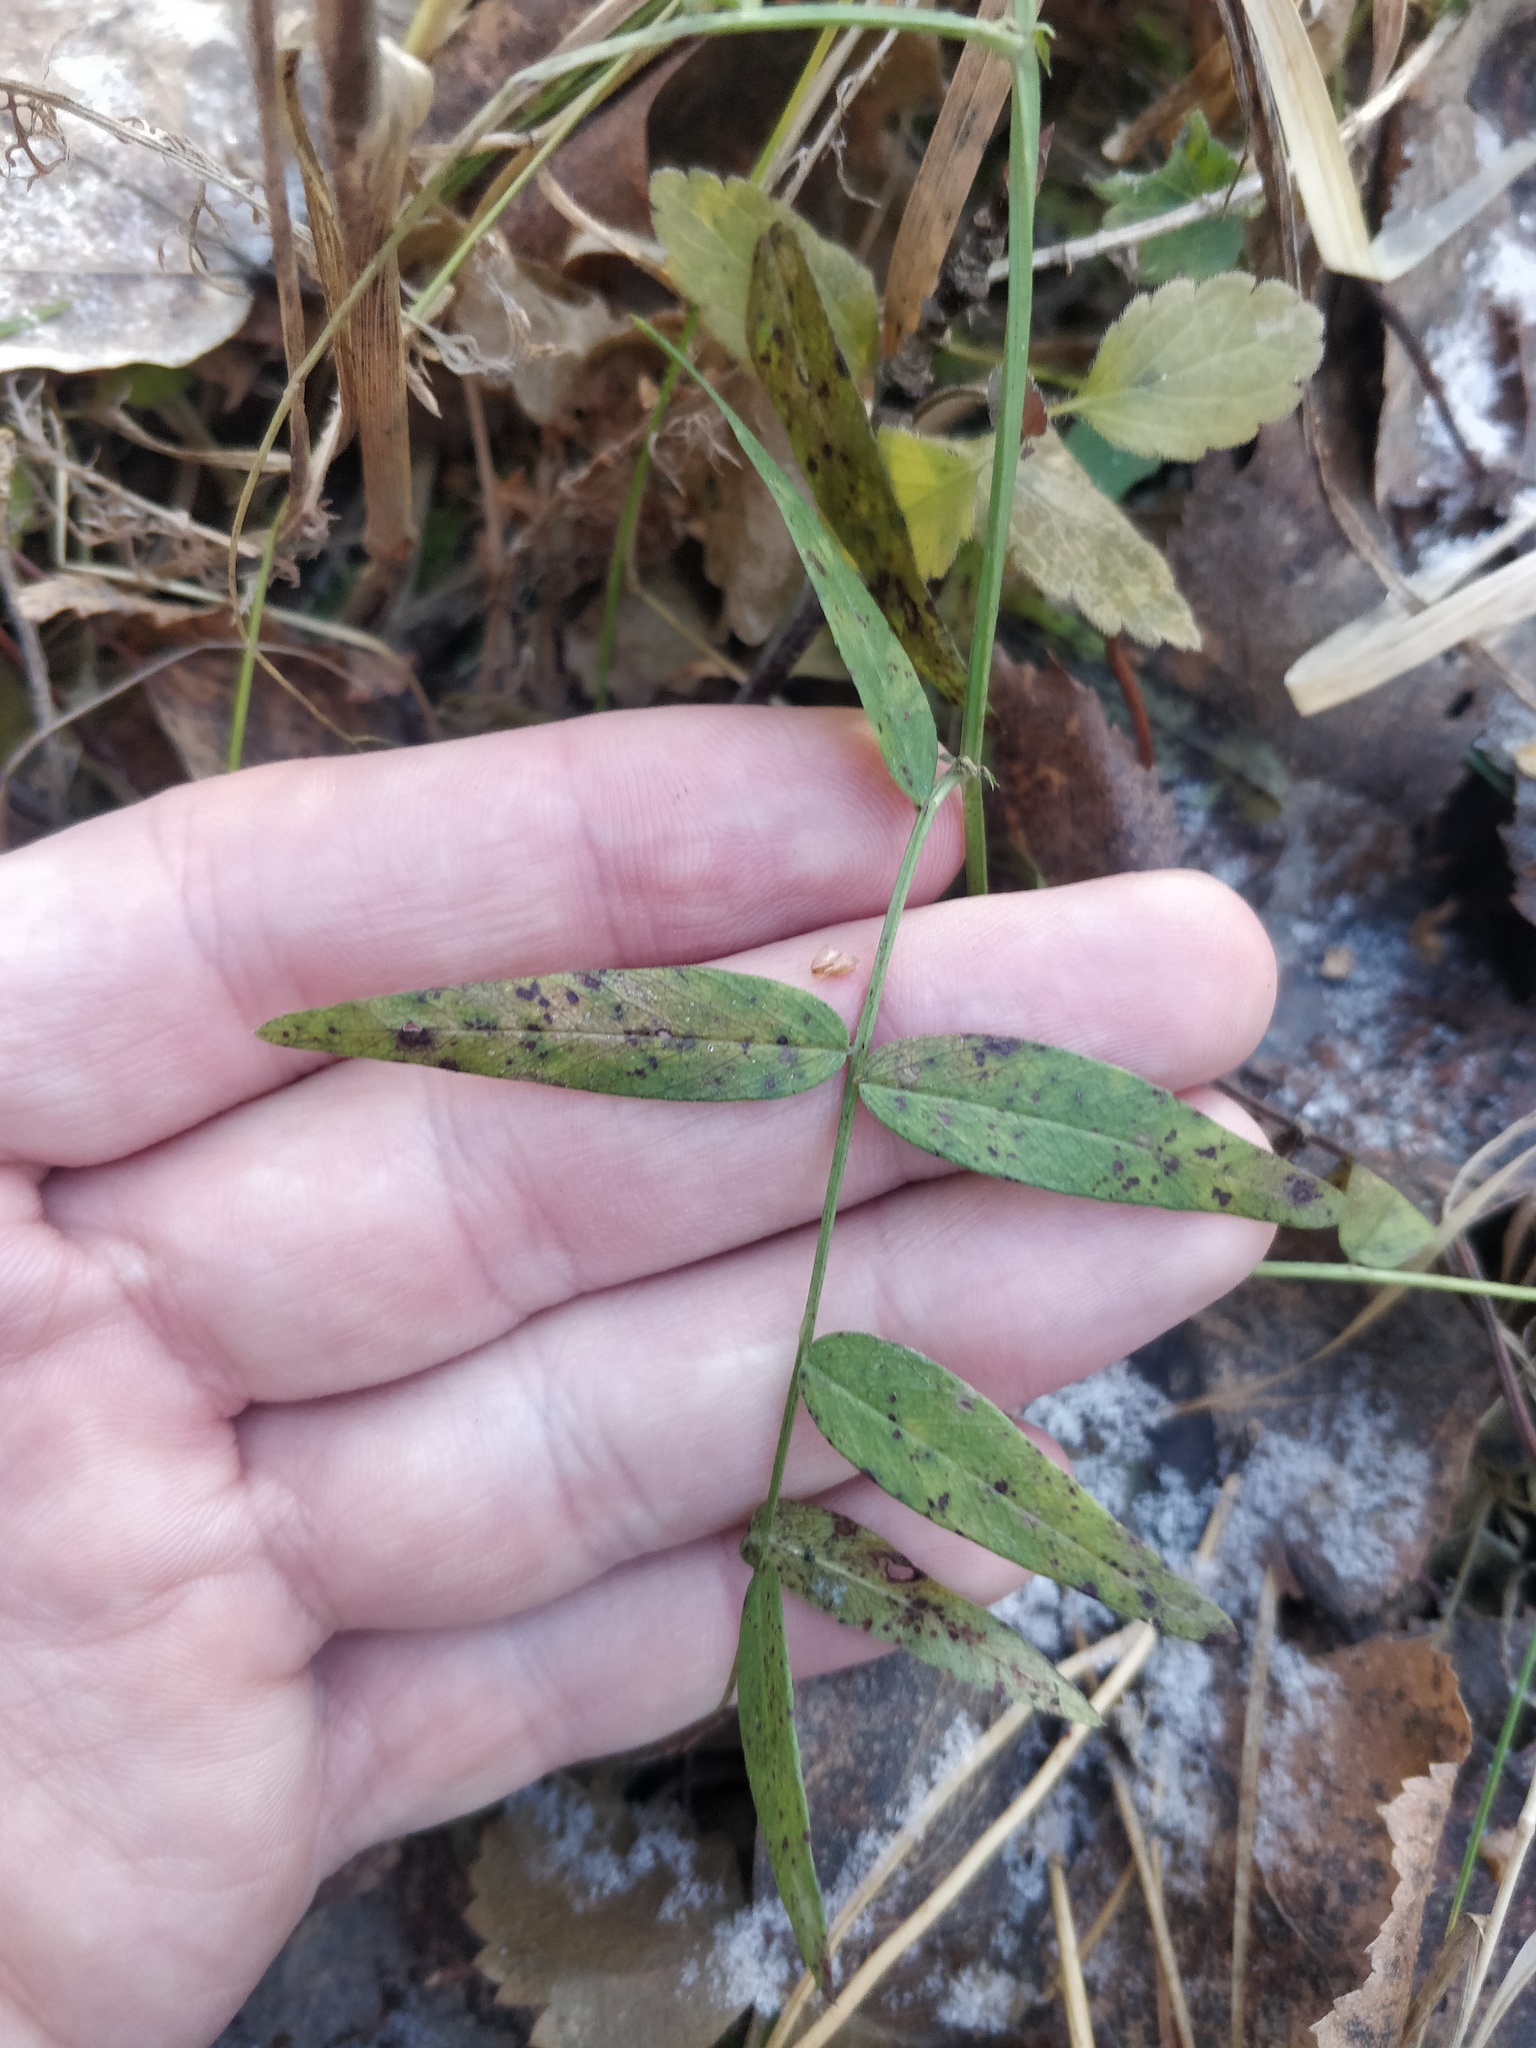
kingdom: Plantae
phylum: Tracheophyta
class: Magnoliopsida
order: Fabales
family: Fabaceae
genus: Vicia
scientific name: Vicia sepium
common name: Bush vetch
